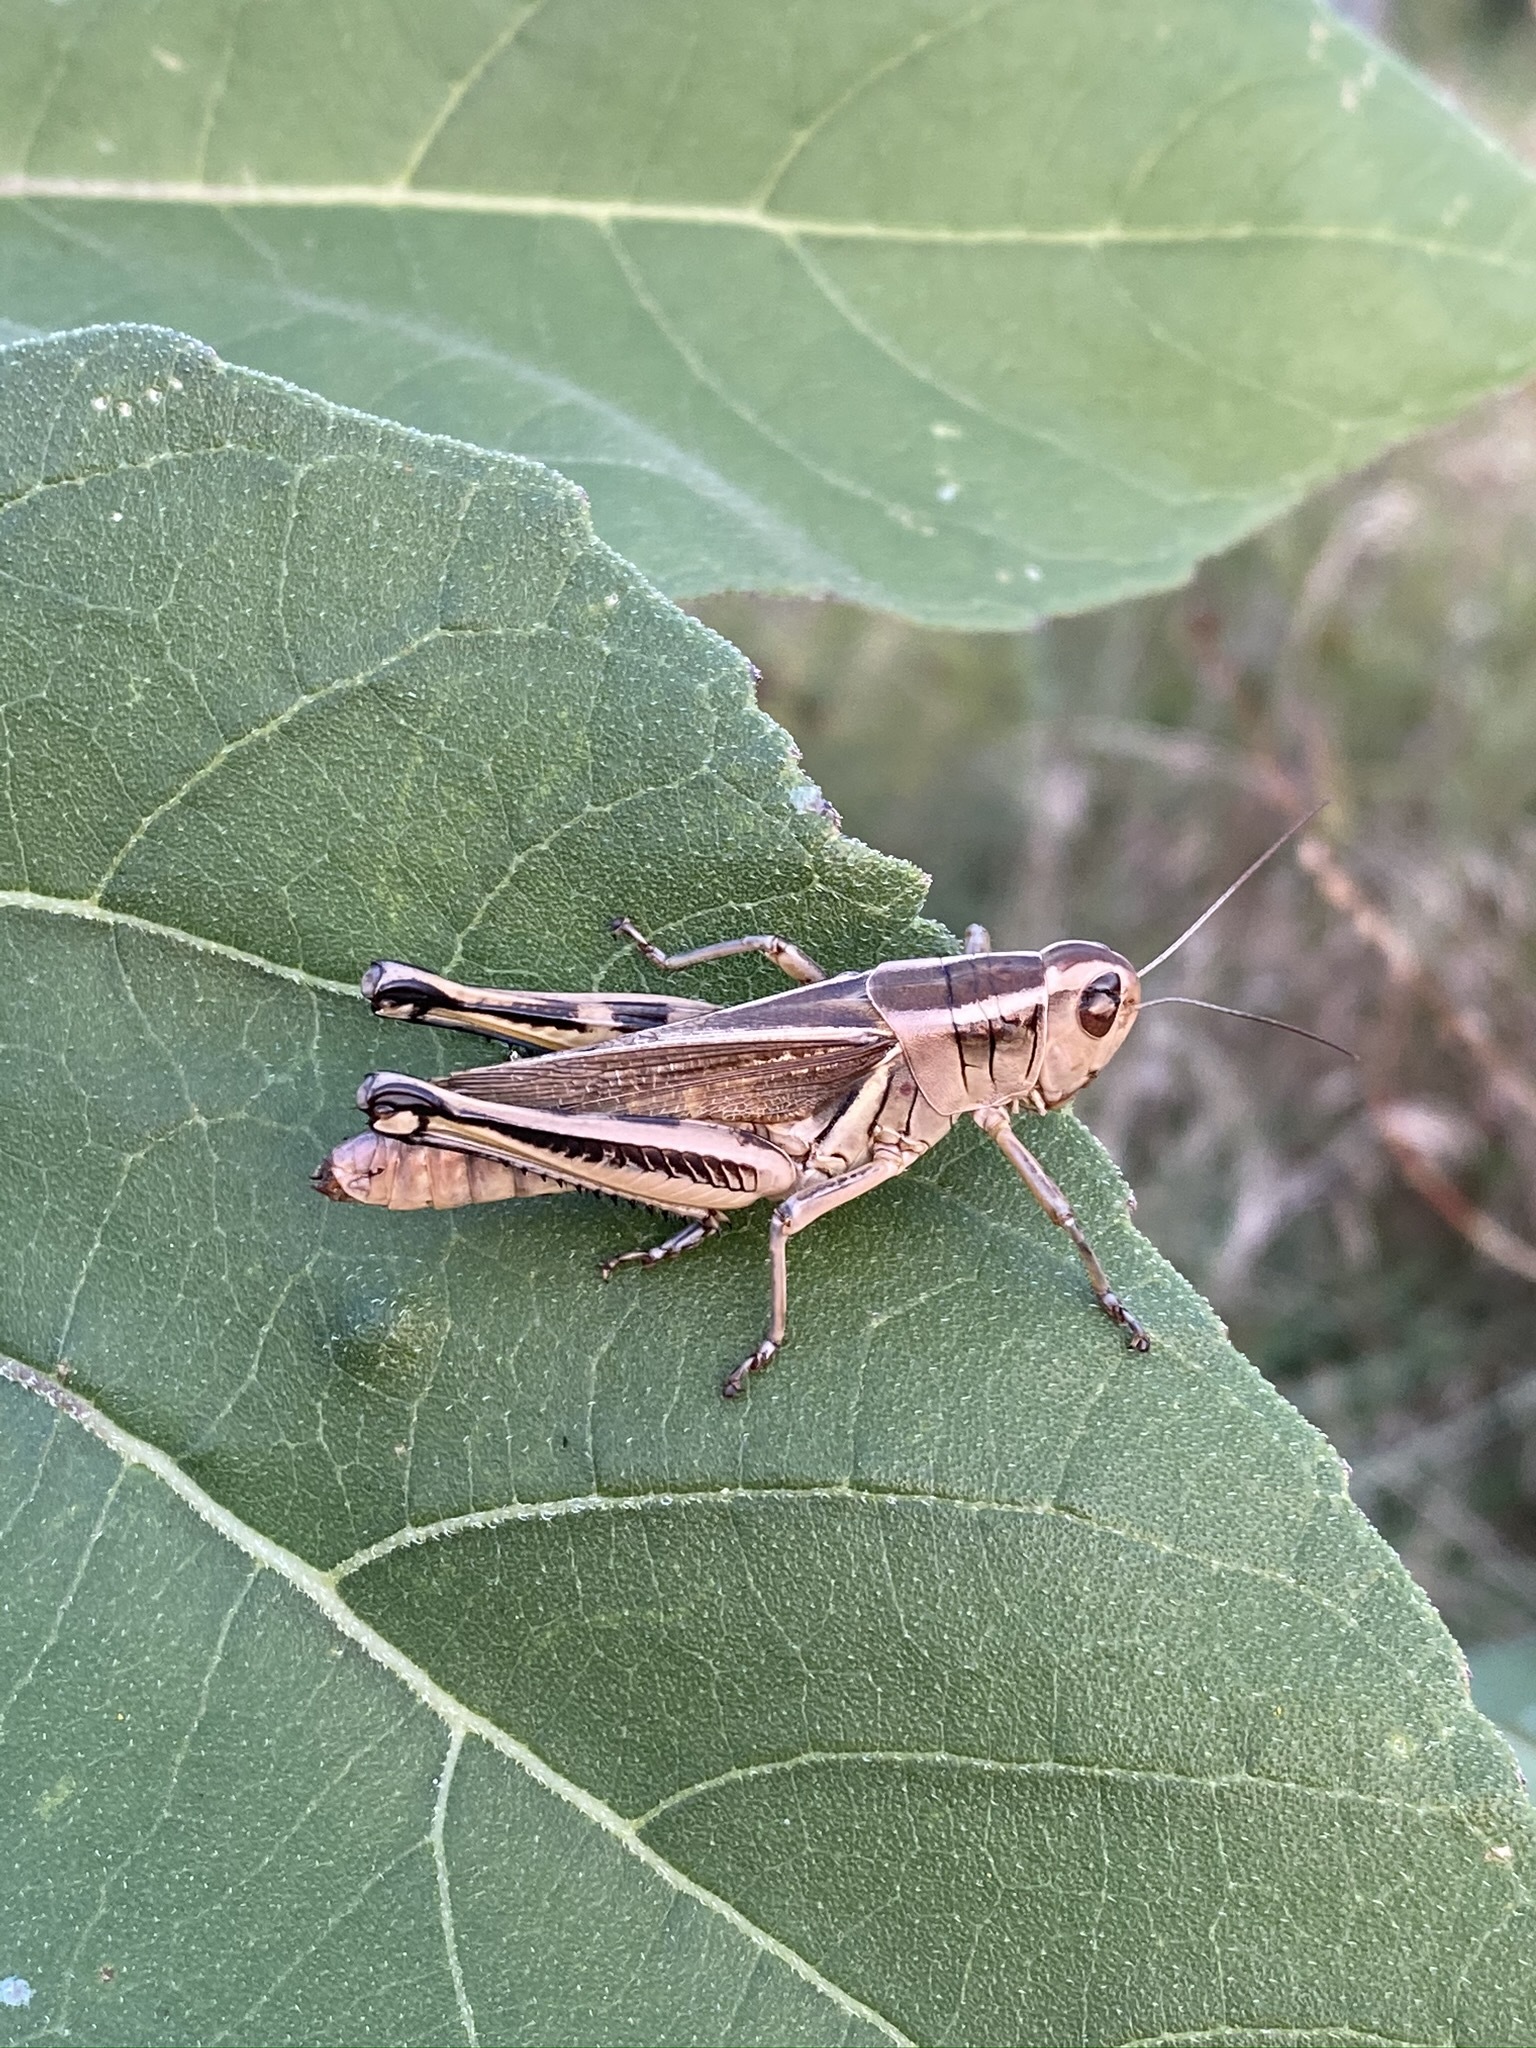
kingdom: Animalia
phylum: Arthropoda
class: Insecta
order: Orthoptera
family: Acrididae
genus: Melanoplus
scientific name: Melanoplus bivittatus
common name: Two-striped grasshopper
